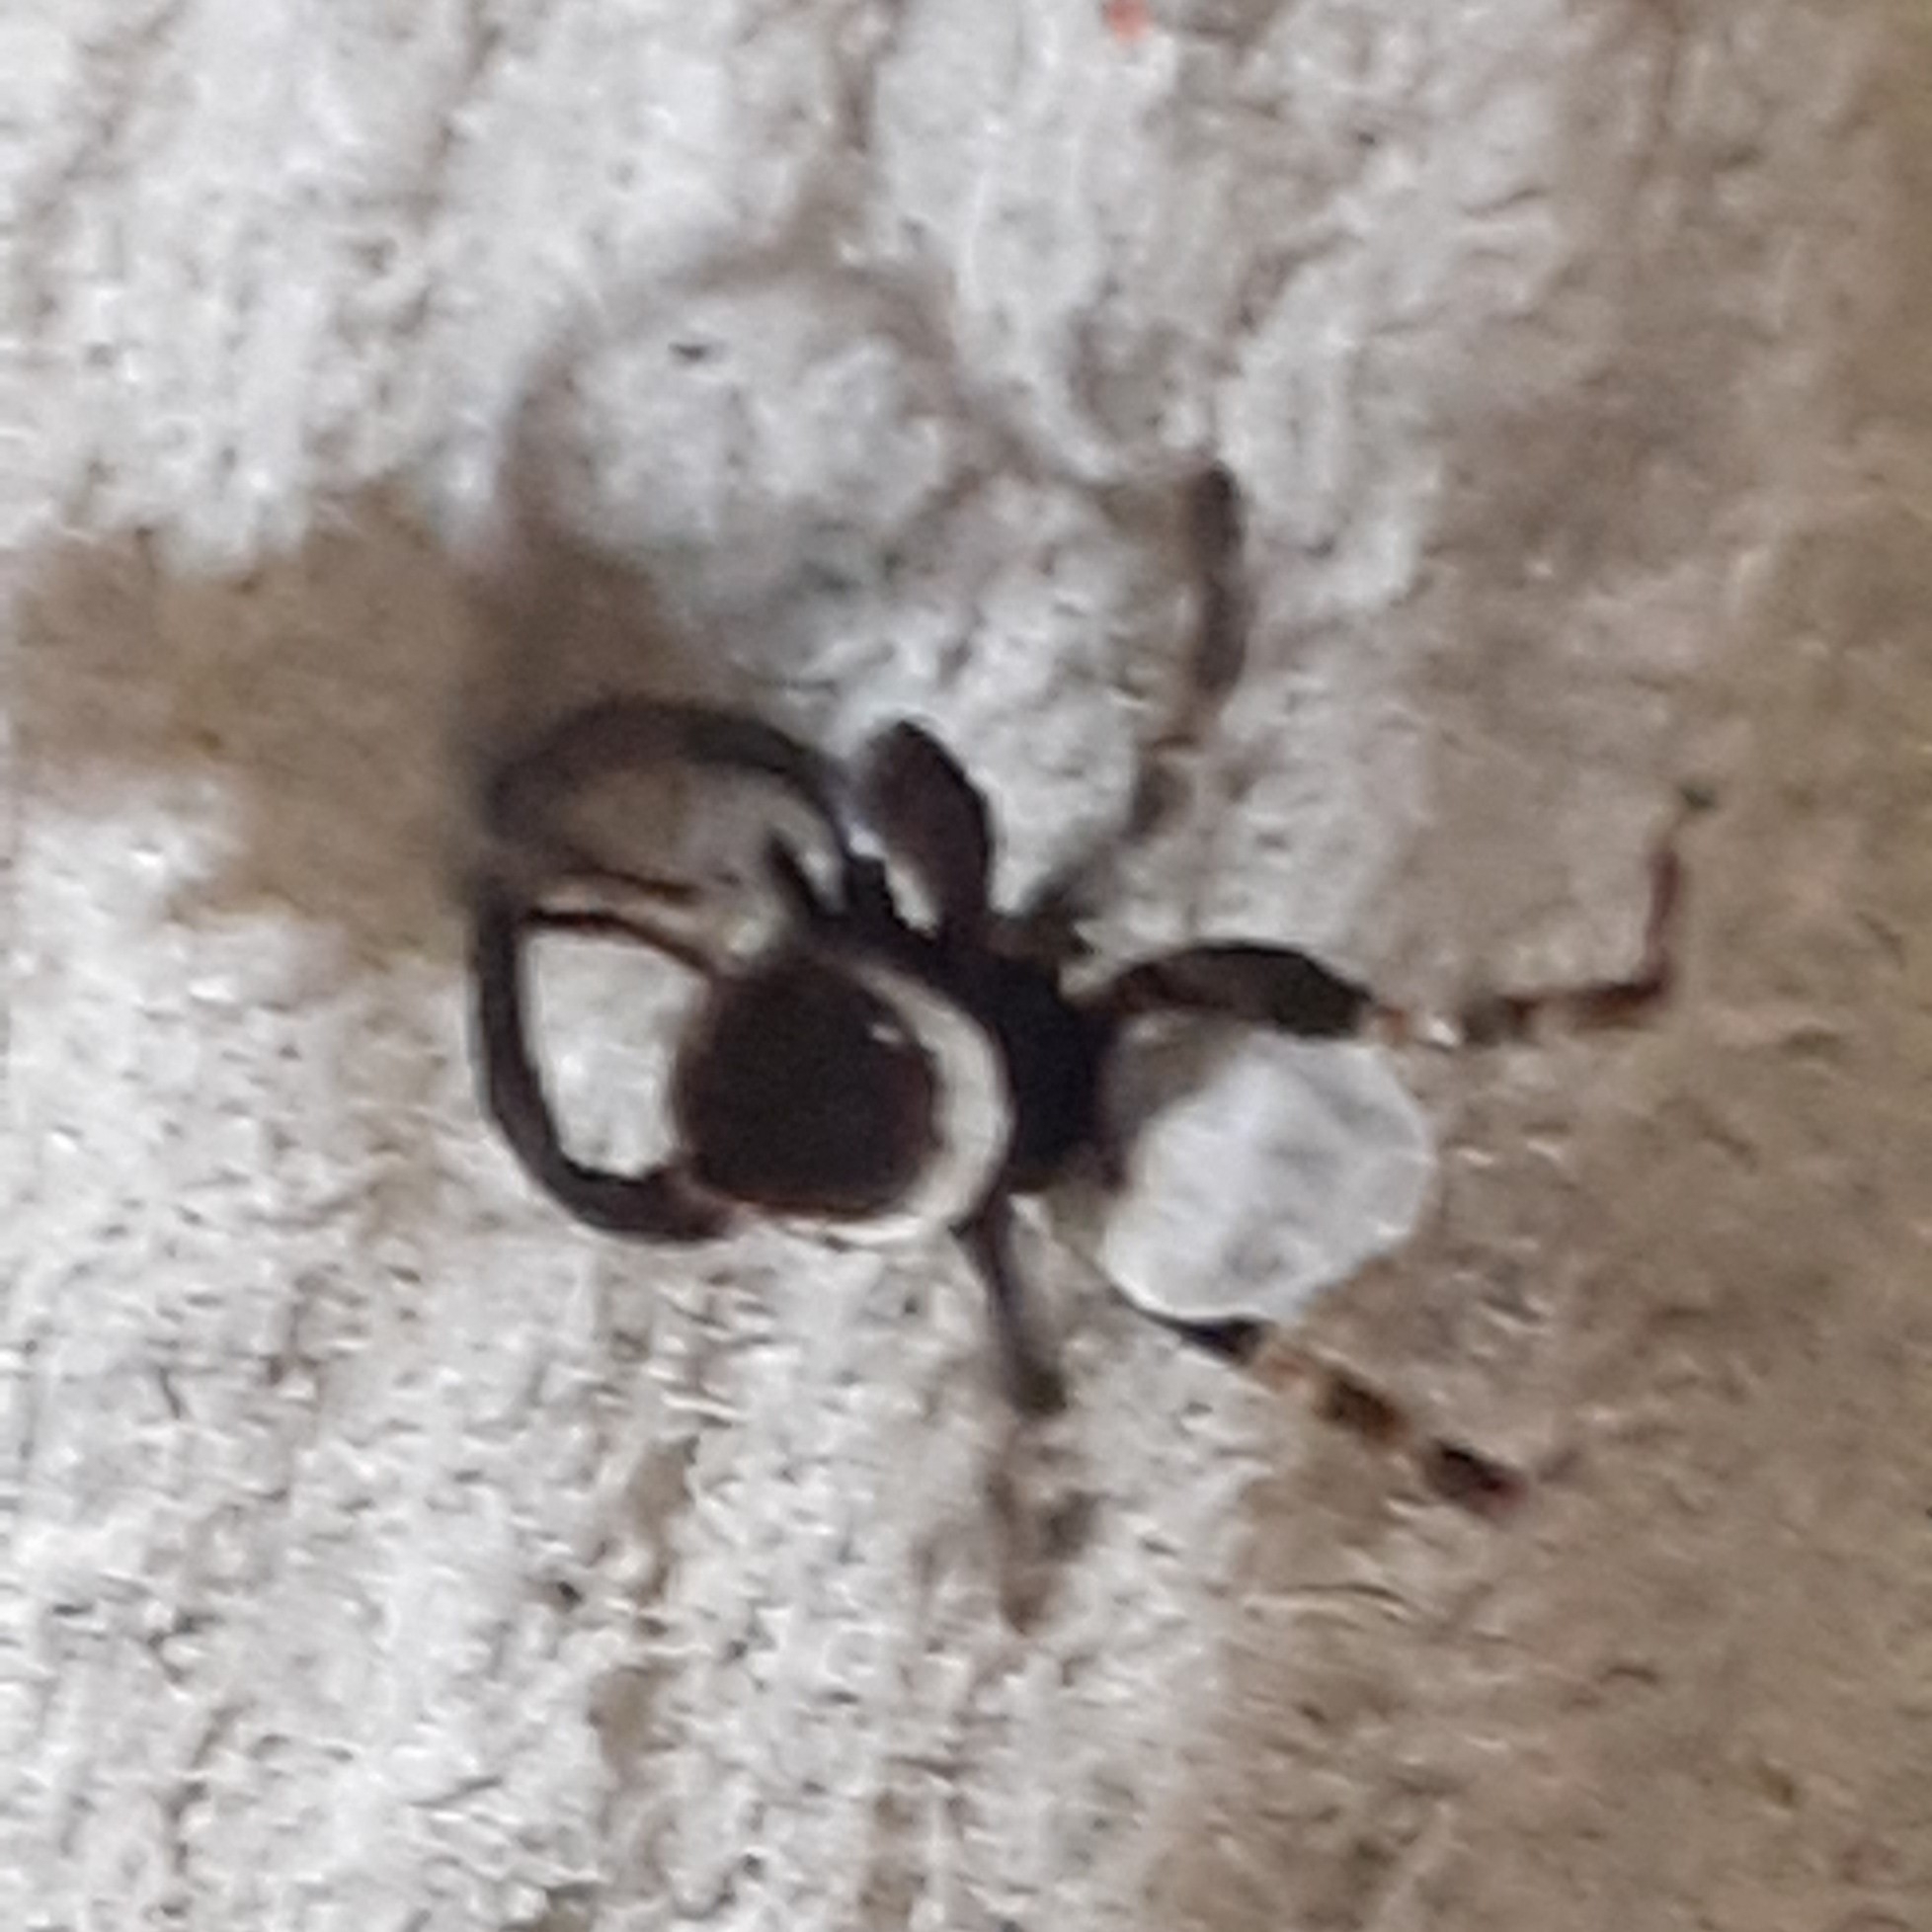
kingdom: Animalia
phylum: Arthropoda
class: Arachnida
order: Araneae
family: Salticidae
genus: Hasarius
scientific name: Hasarius adansoni
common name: Jumping spider
